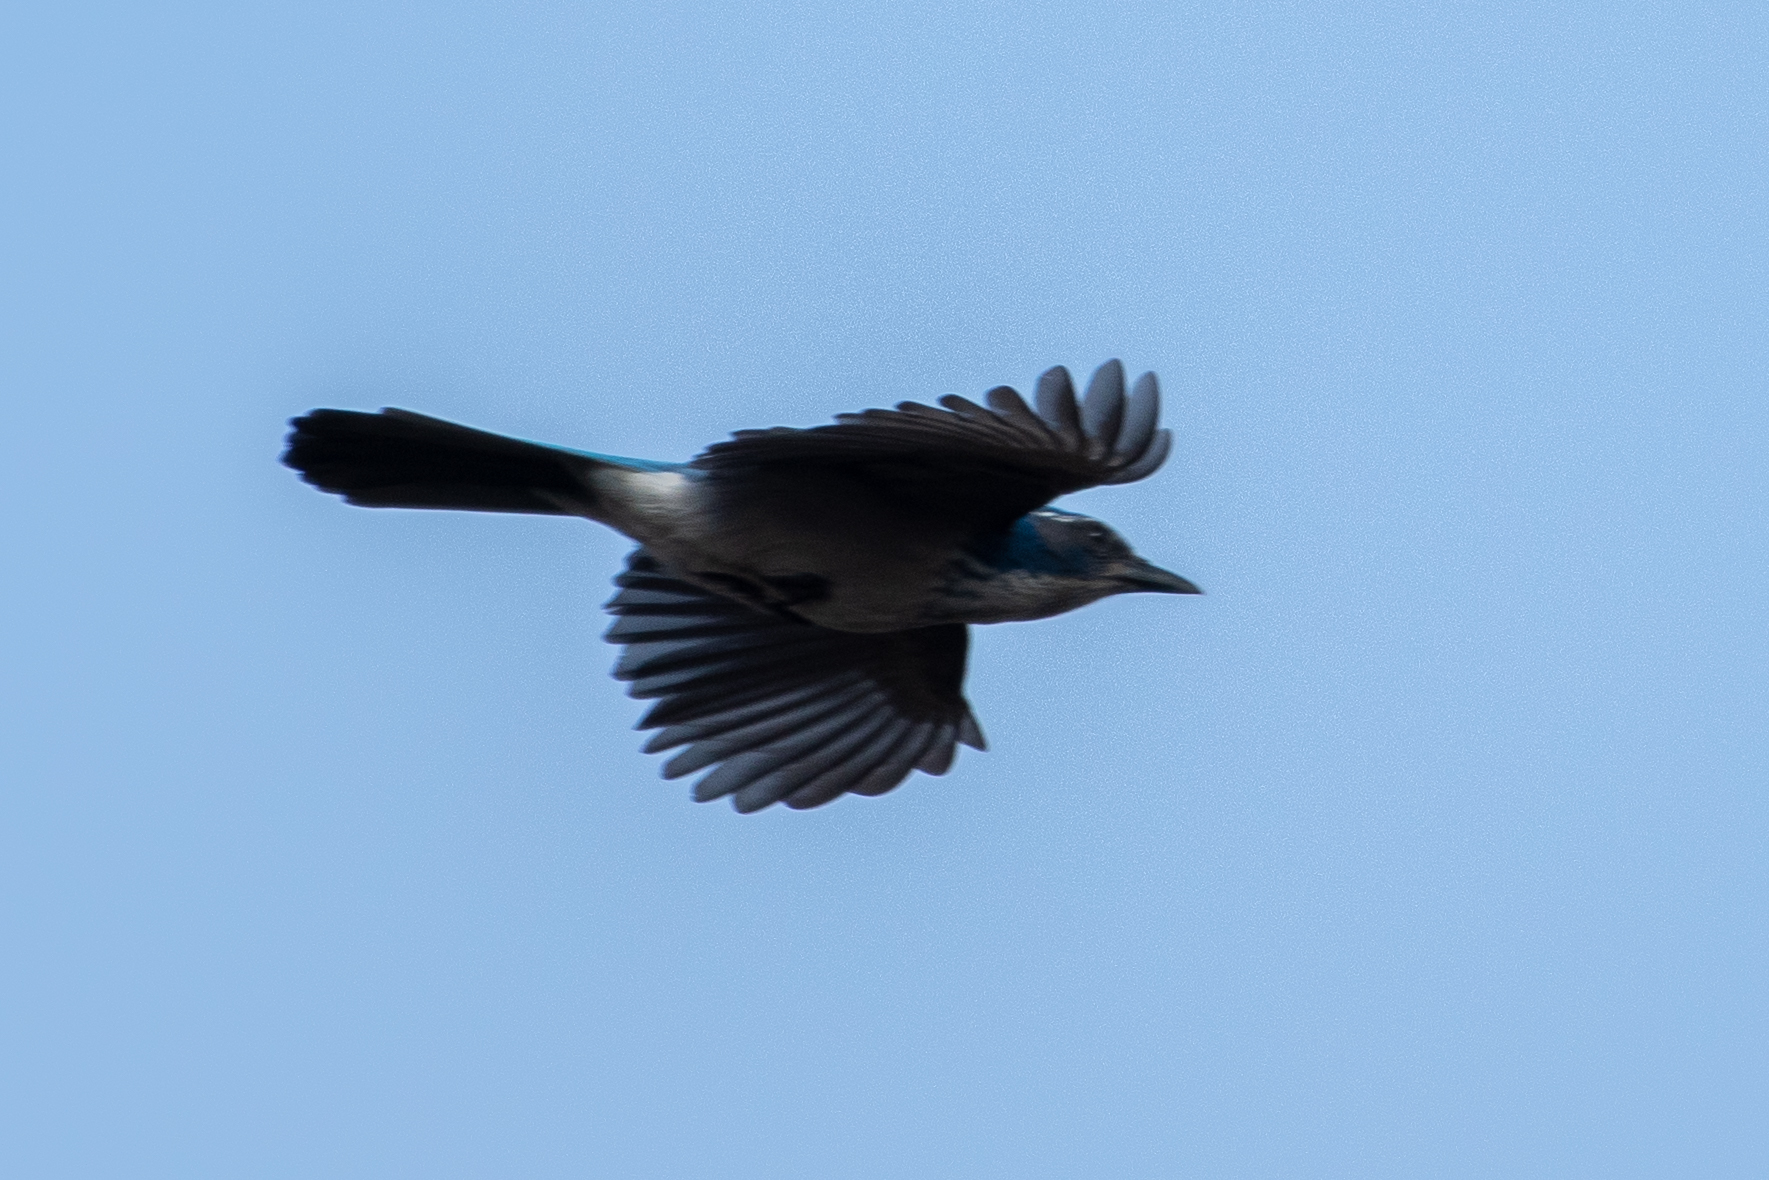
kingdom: Animalia
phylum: Chordata
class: Aves
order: Passeriformes
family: Corvidae
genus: Aphelocoma
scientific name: Aphelocoma californica
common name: California scrub-jay
